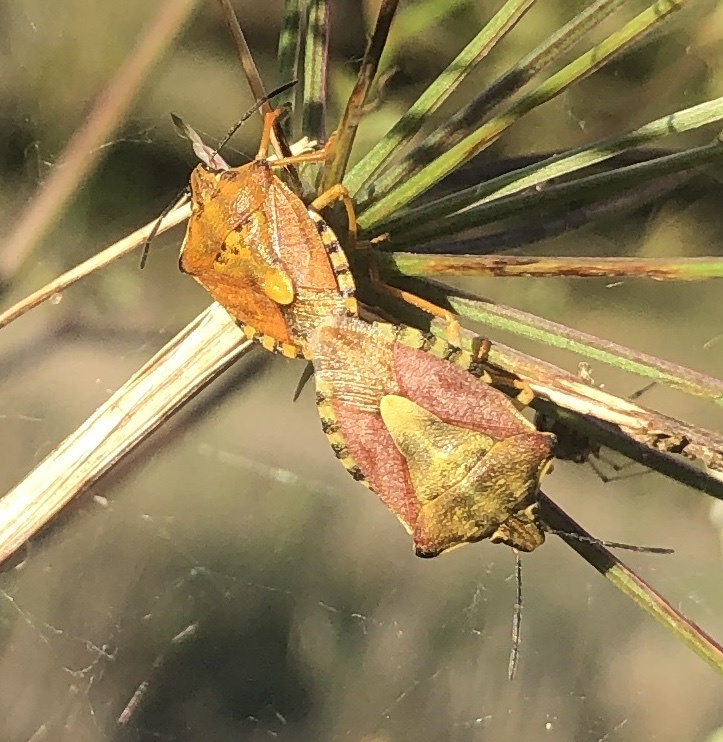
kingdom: Animalia
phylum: Arthropoda
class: Insecta
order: Hemiptera
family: Pentatomidae
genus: Carpocoris
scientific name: Carpocoris purpureipennis
